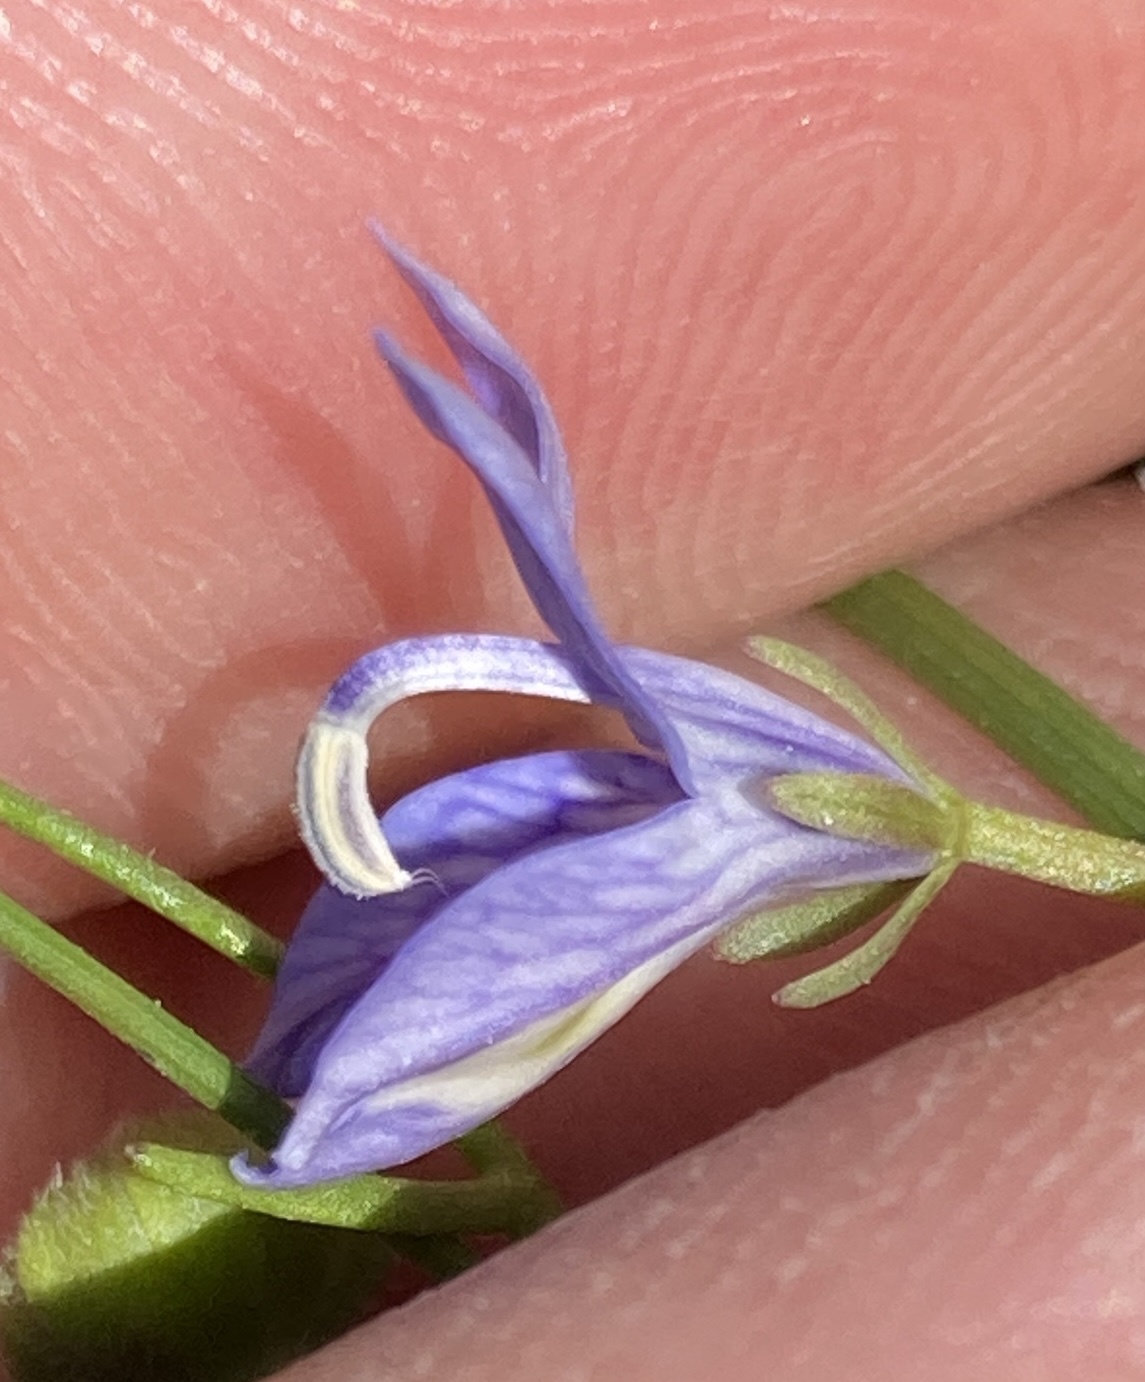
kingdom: Plantae
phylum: Tracheophyta
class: Magnoliopsida
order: Asterales
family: Campanulaceae
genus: Downingia
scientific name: Downingia insignis
